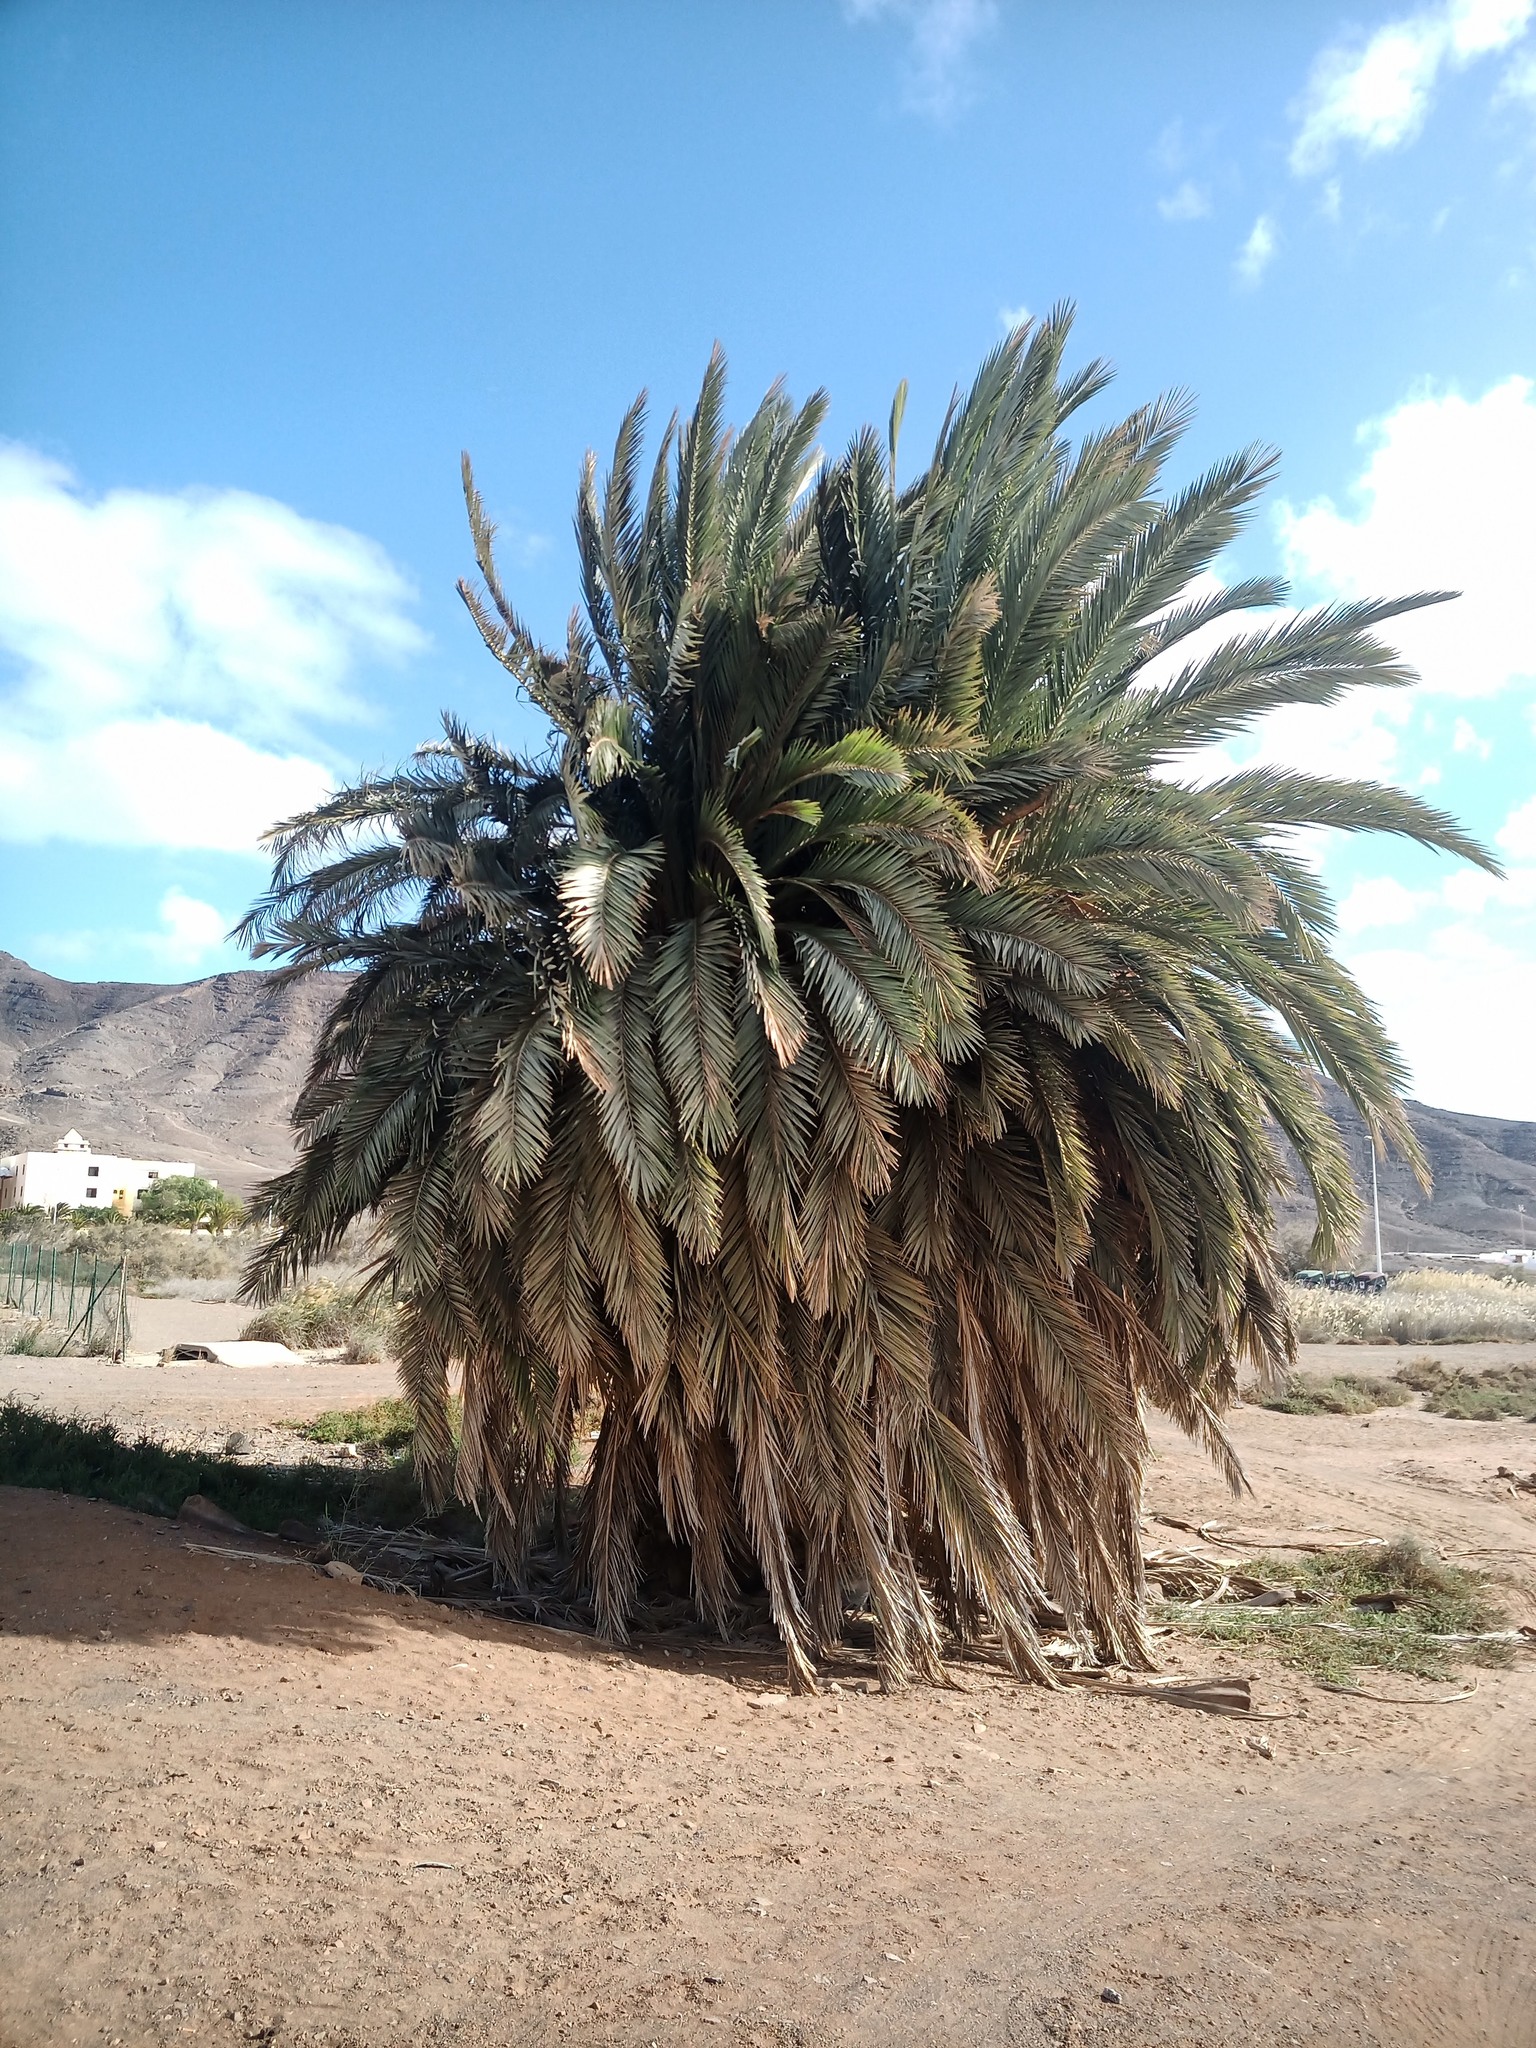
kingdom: Plantae
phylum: Tracheophyta
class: Liliopsida
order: Arecales
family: Arecaceae
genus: Phoenix
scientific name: Phoenix canariensis
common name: Canary island date palm
